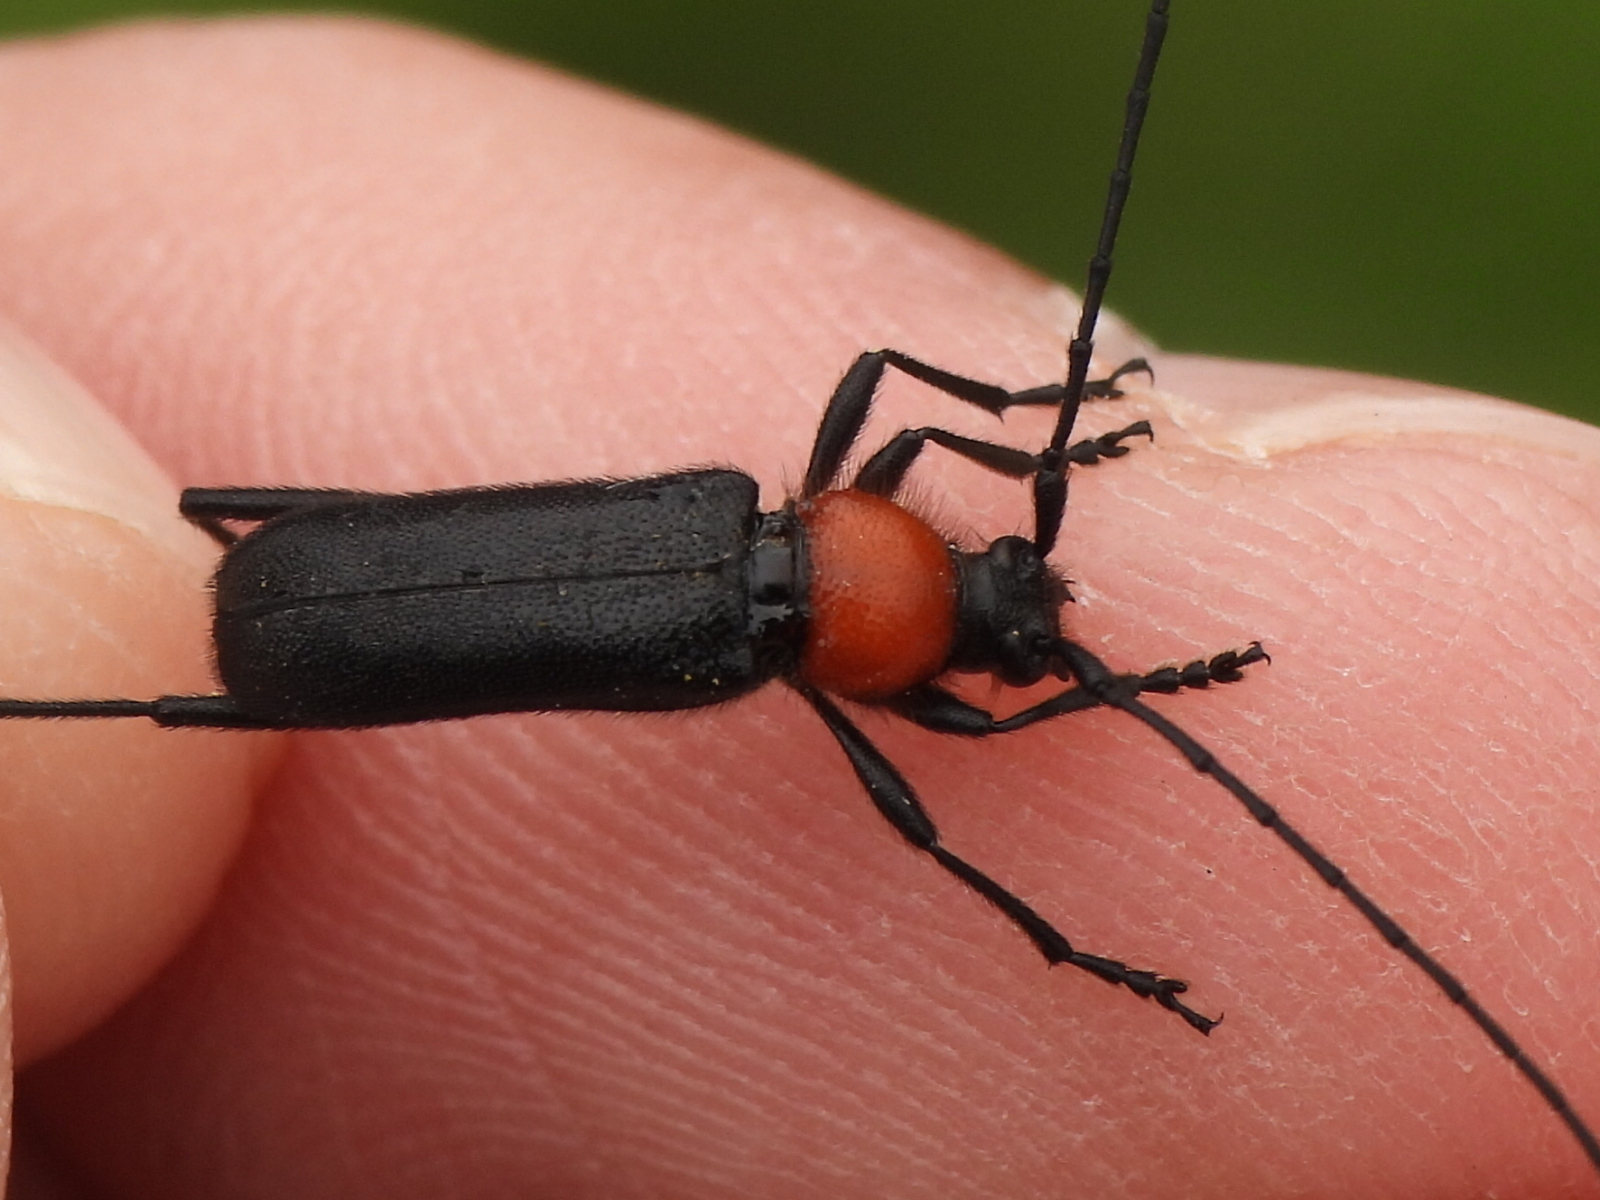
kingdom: Animalia
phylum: Arthropoda
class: Insecta
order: Coleoptera
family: Cerambycidae
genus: Batyle
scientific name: Batyle ignicollis
